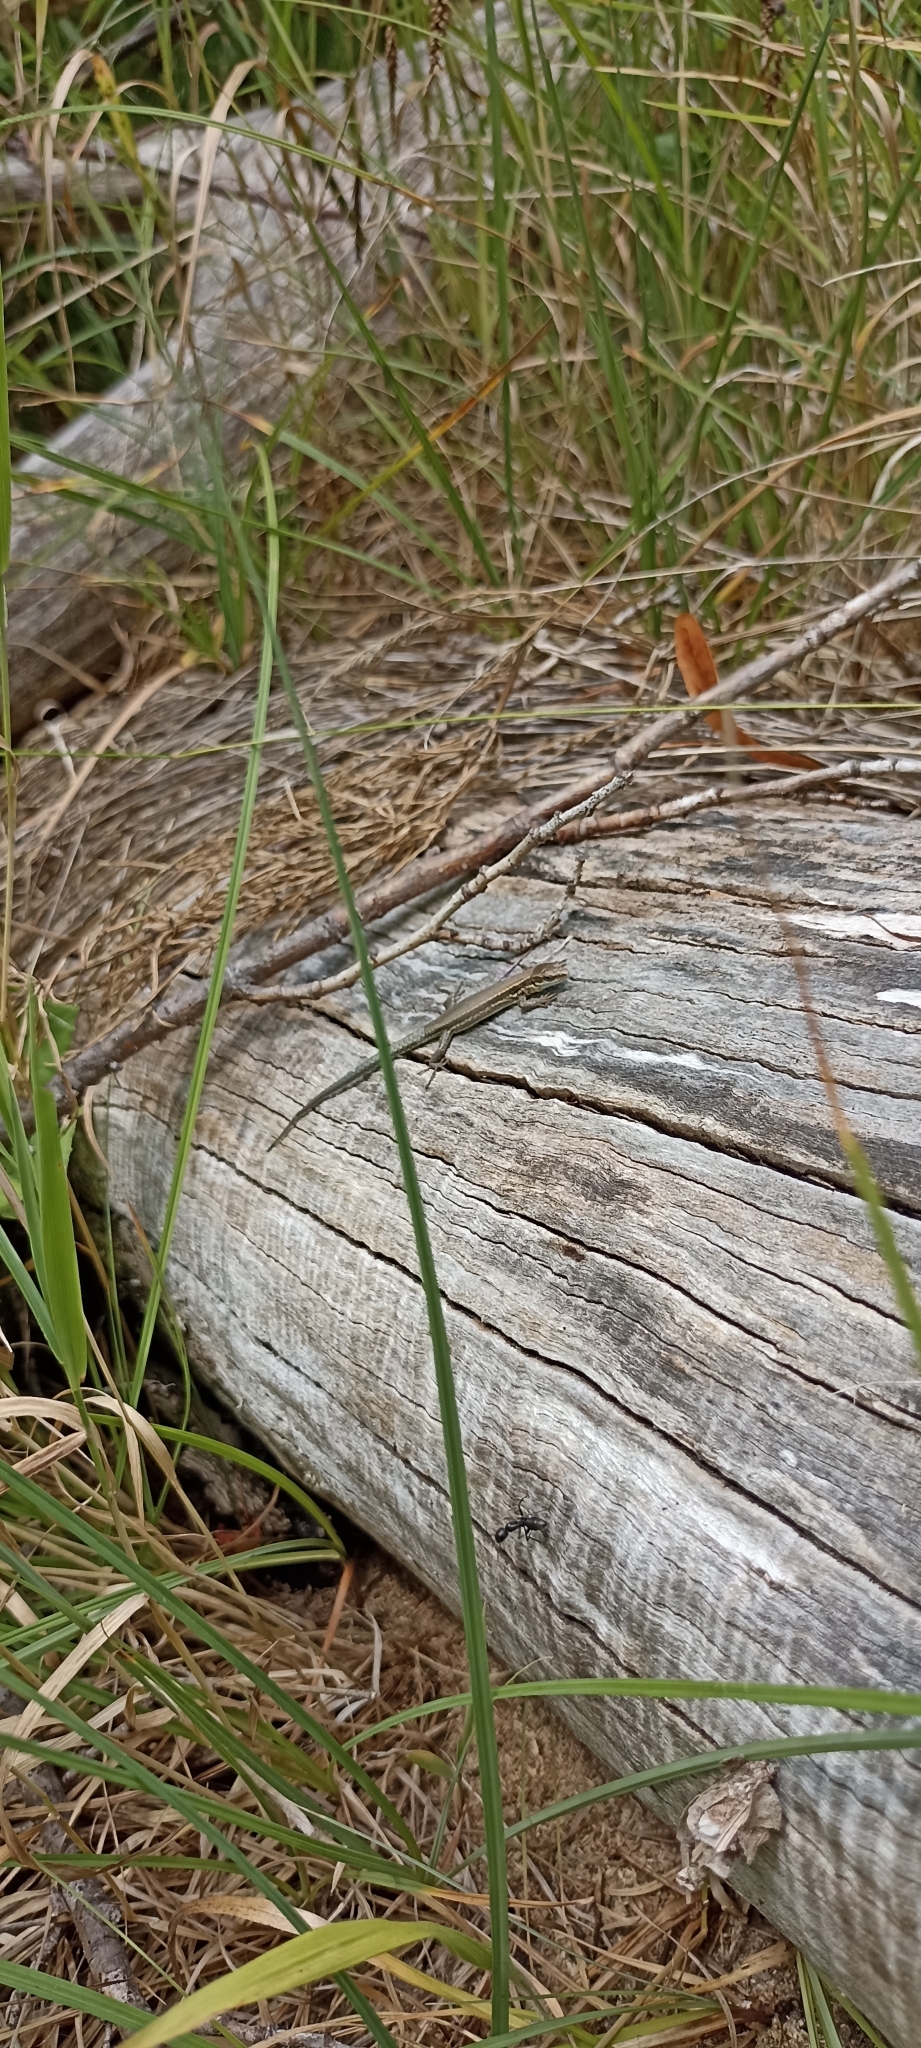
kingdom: Animalia
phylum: Chordata
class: Squamata
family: Lacertidae
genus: Podarcis
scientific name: Podarcis muralis
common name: Common wall lizard
